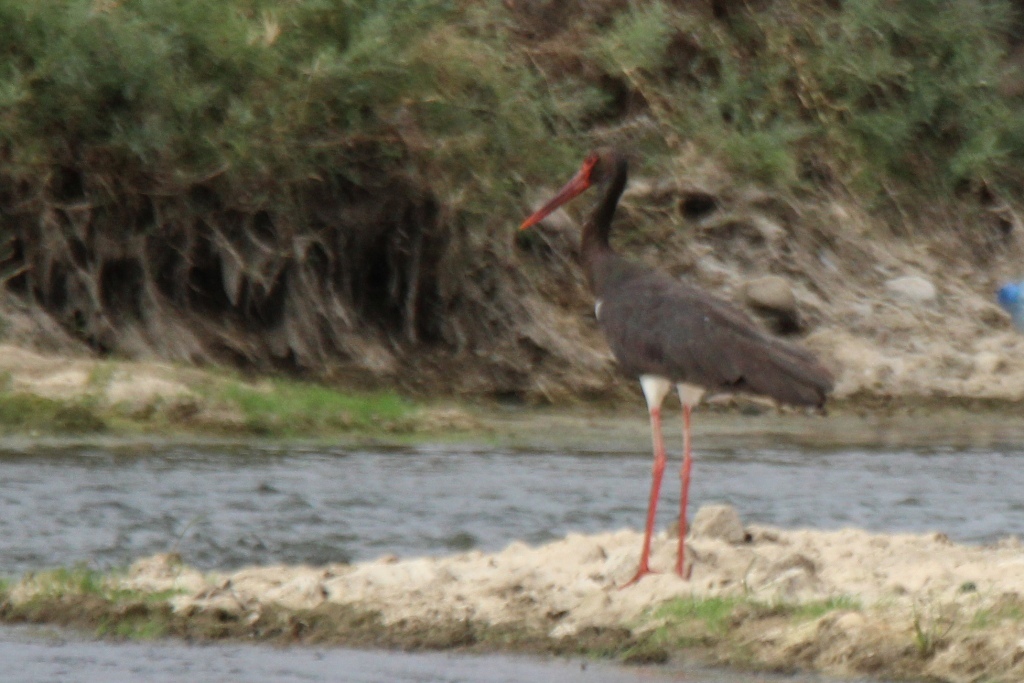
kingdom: Animalia
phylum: Chordata
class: Aves
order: Ciconiiformes
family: Ciconiidae
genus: Ciconia
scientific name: Ciconia nigra
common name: Black stork
